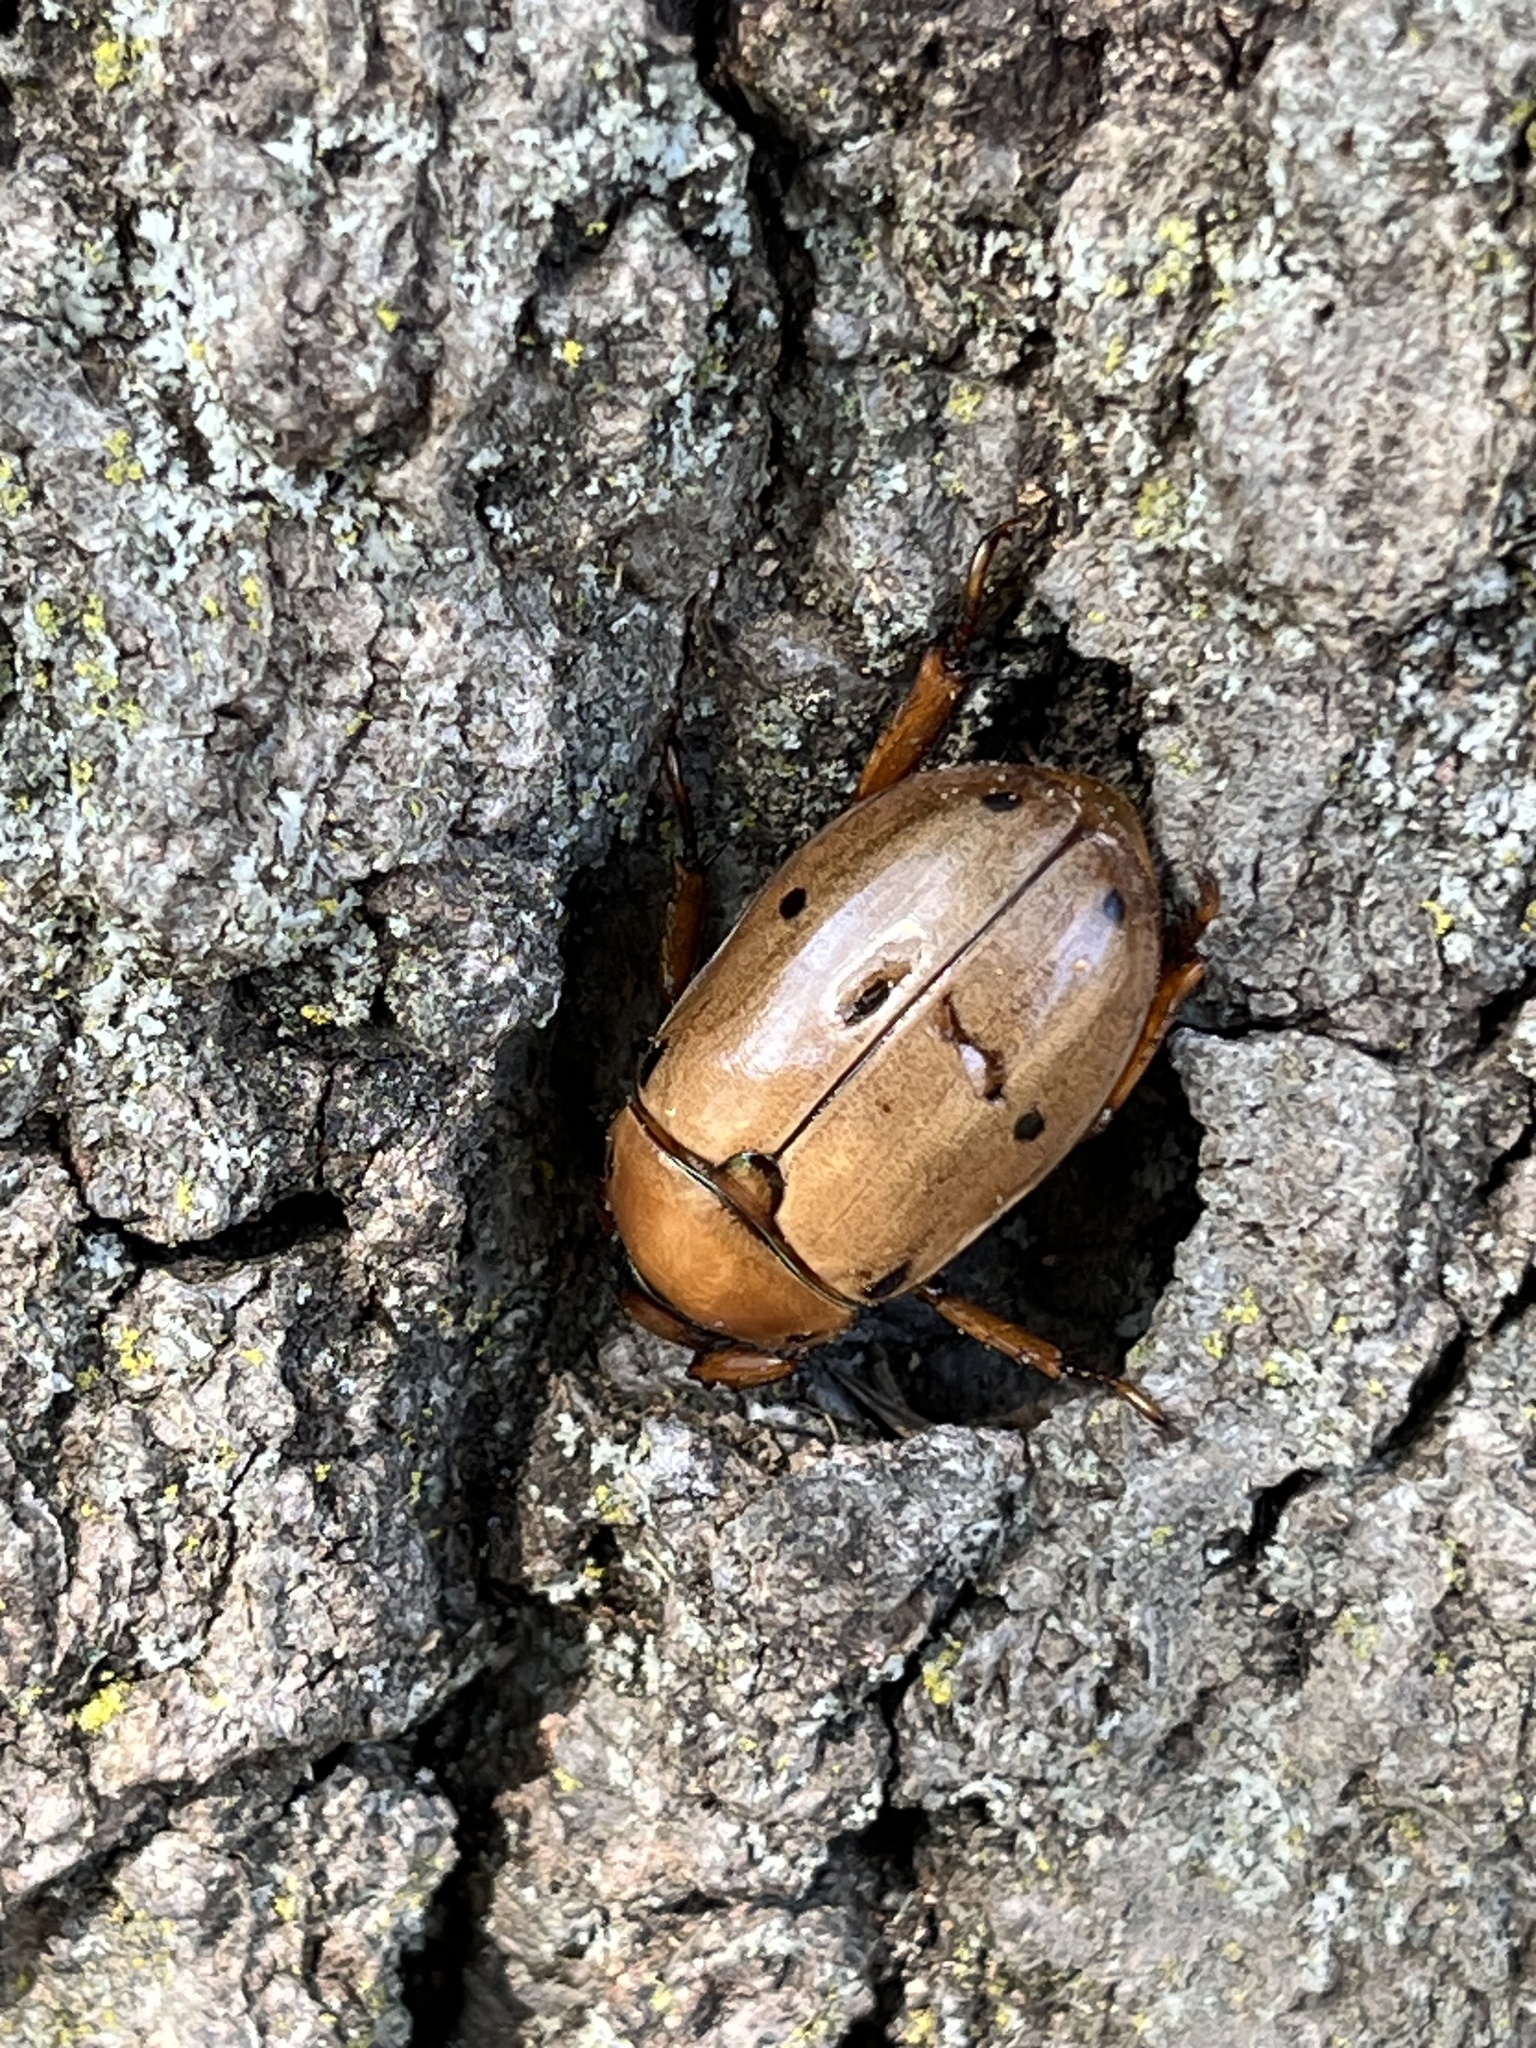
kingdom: Animalia
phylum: Arthropoda
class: Insecta
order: Coleoptera
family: Scarabaeidae
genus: Pelidnota
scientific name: Pelidnota punctata
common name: Grapevine beetle
